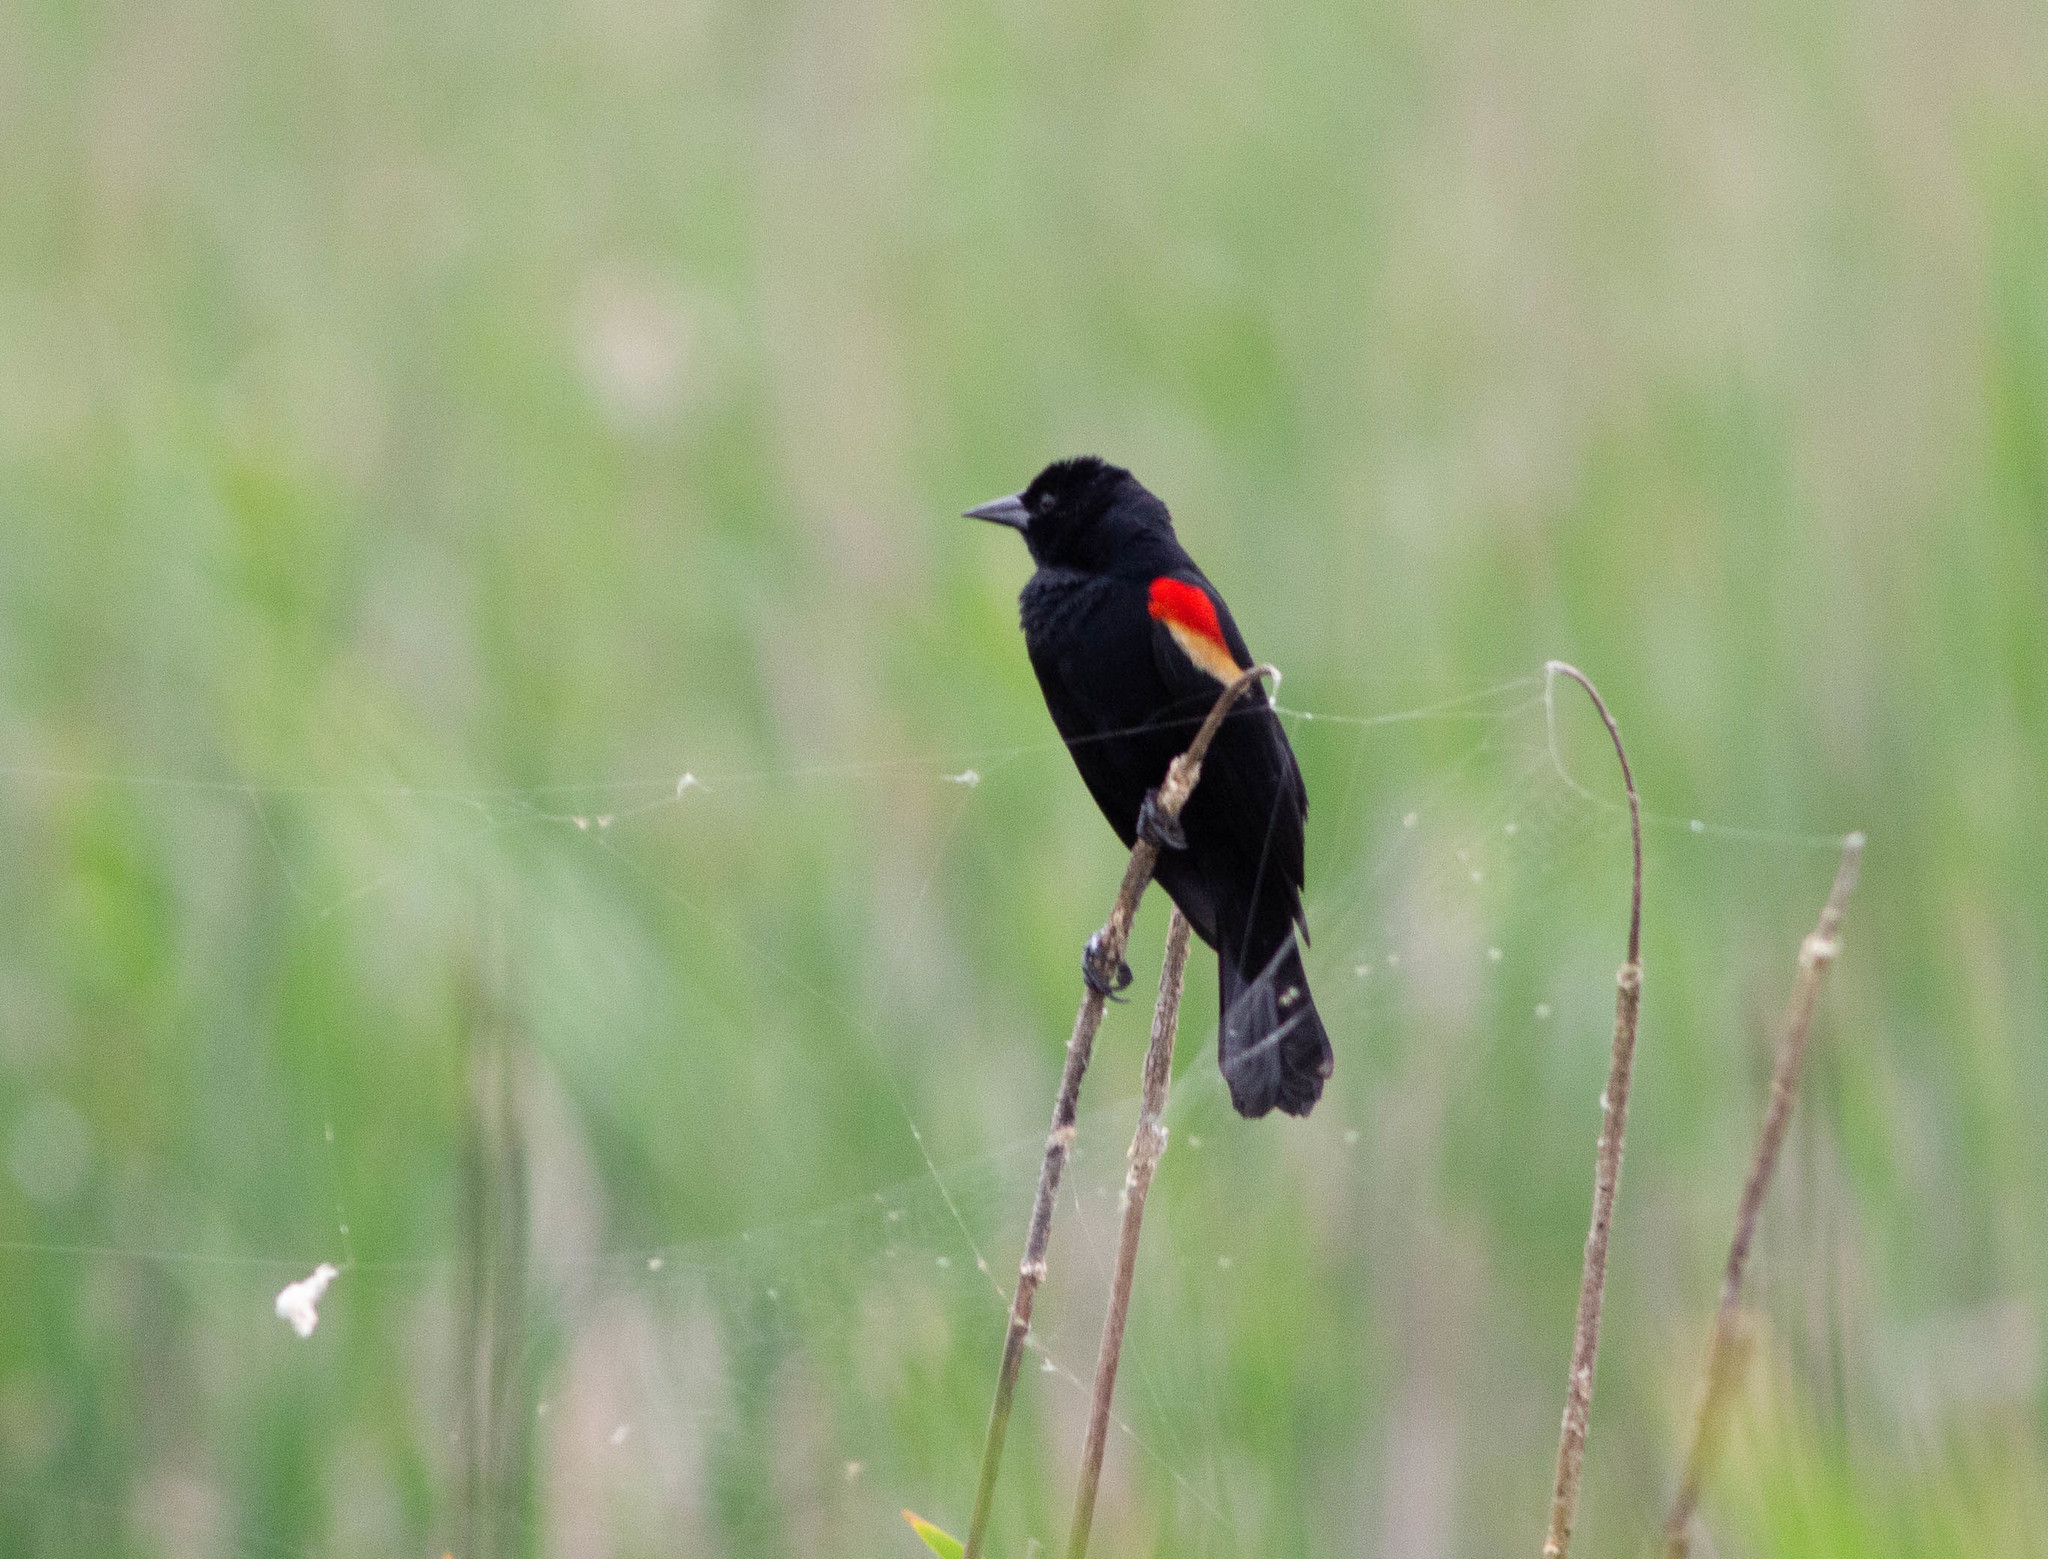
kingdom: Animalia
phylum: Chordata
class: Aves
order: Passeriformes
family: Icteridae
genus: Agelaius
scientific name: Agelaius phoeniceus
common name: Red-winged blackbird
